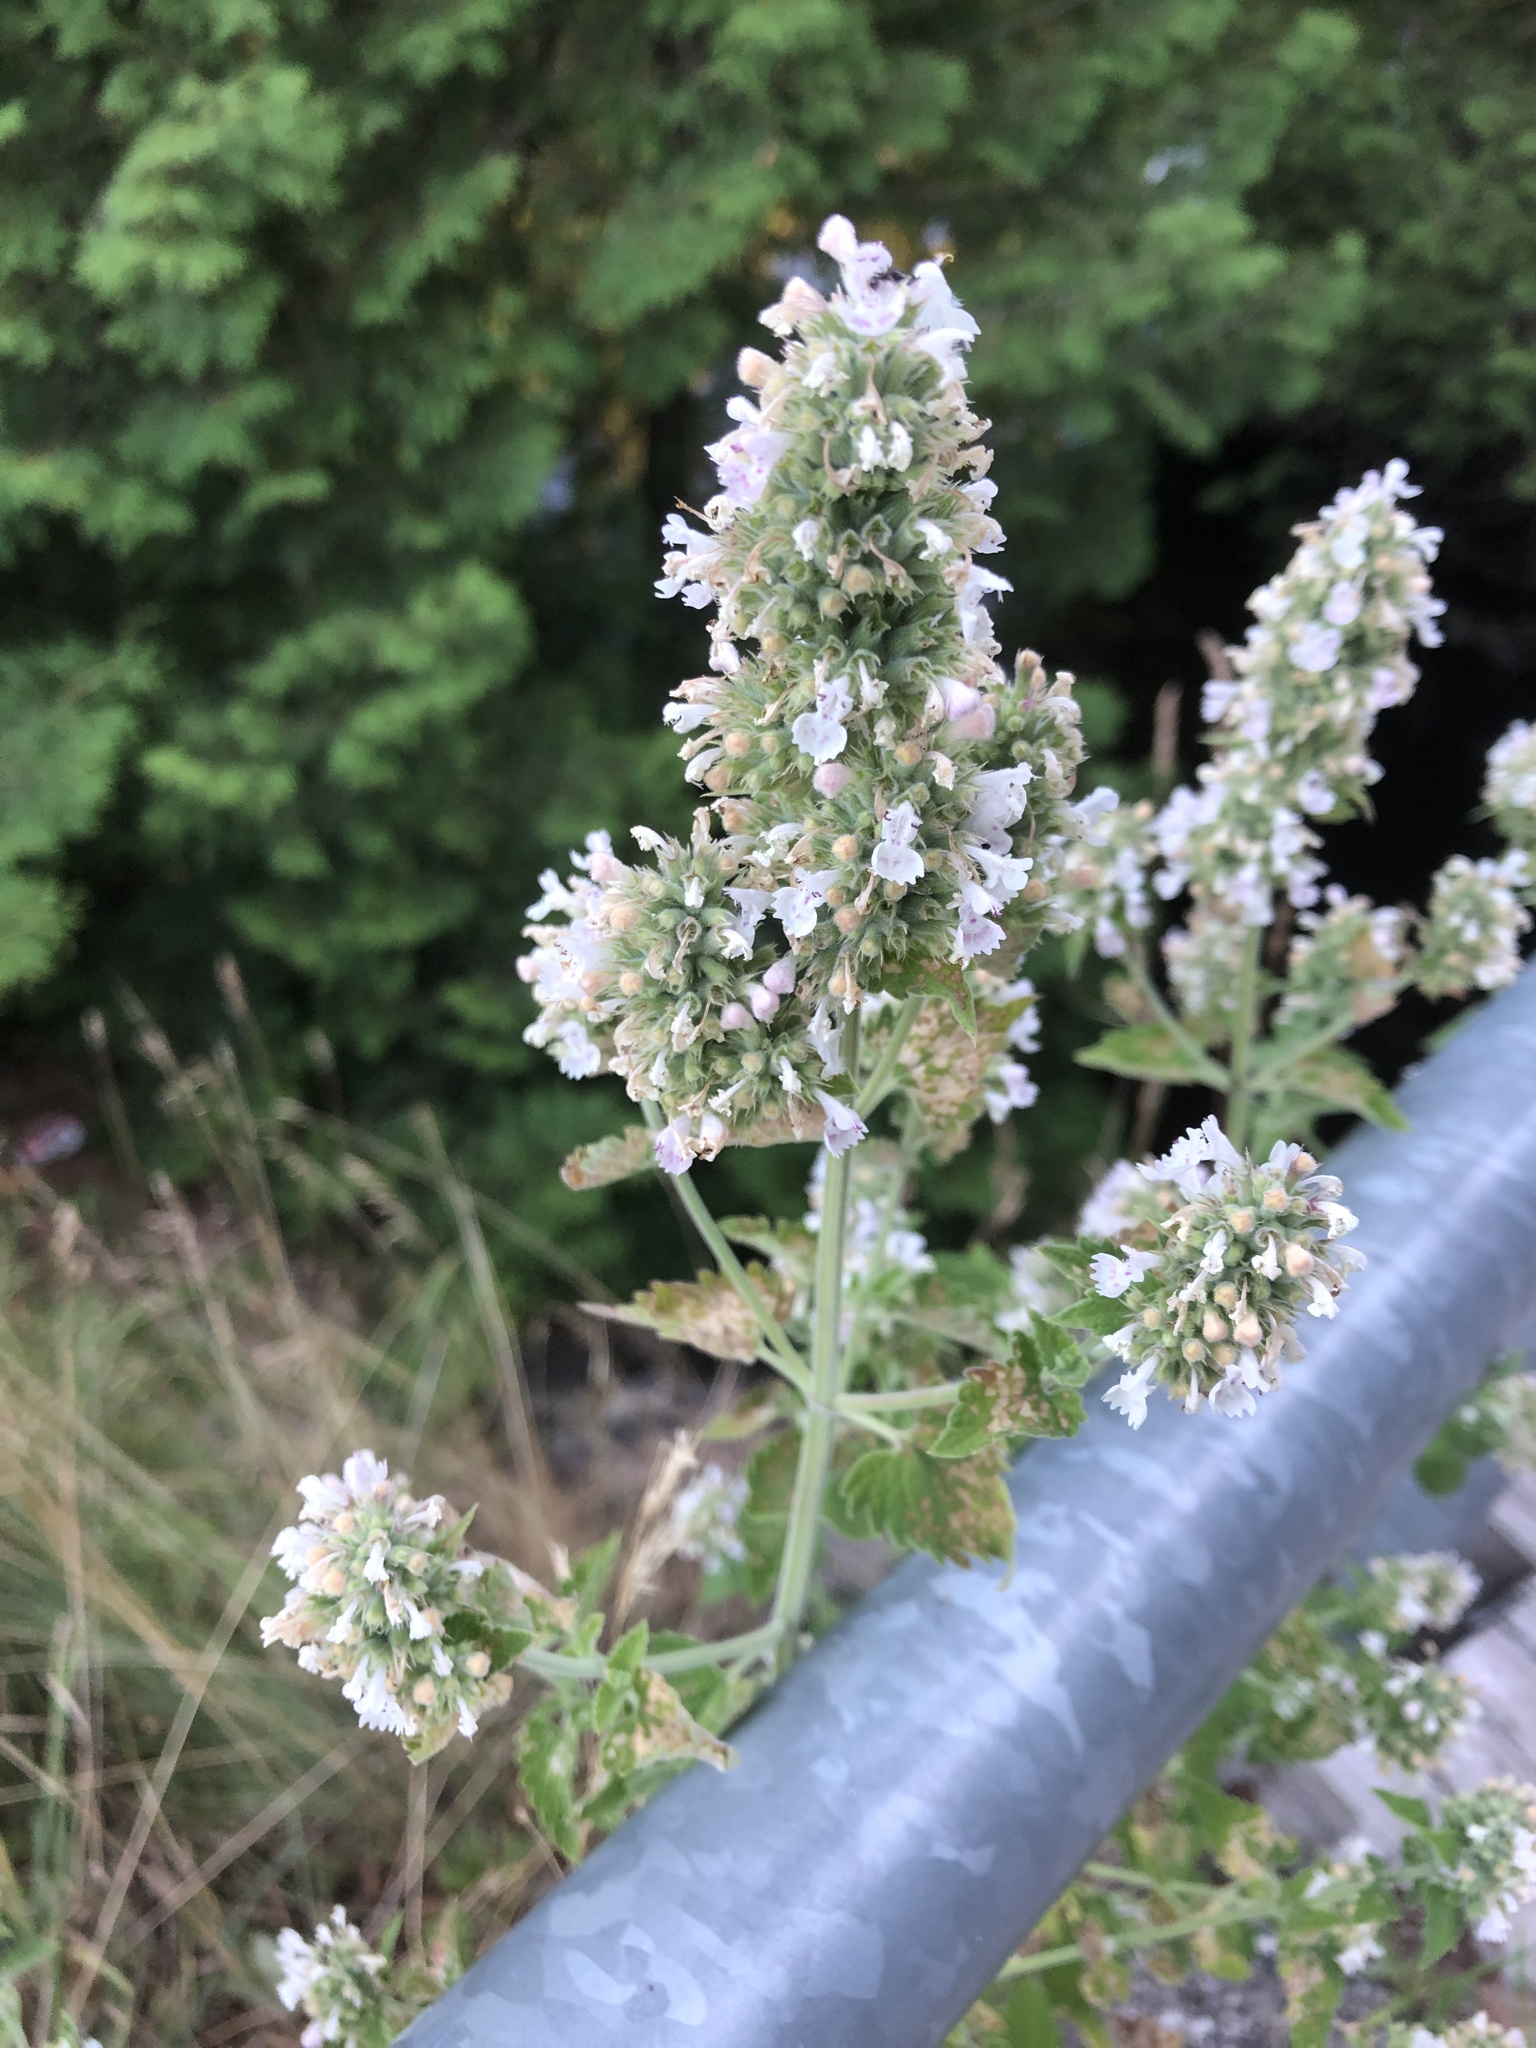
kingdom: Plantae
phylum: Tracheophyta
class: Magnoliopsida
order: Lamiales
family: Lamiaceae
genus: Nepeta
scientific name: Nepeta cataria
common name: Catnip
